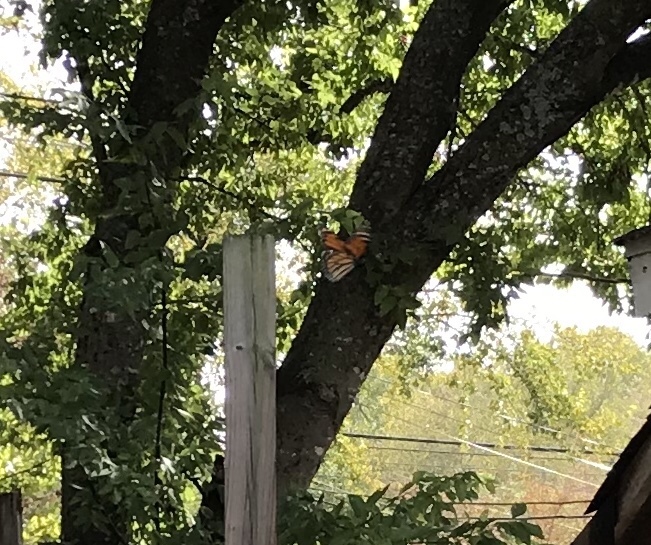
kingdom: Animalia
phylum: Arthropoda
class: Insecta
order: Lepidoptera
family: Nymphalidae
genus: Danaus
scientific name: Danaus plexippus
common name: Monarch
